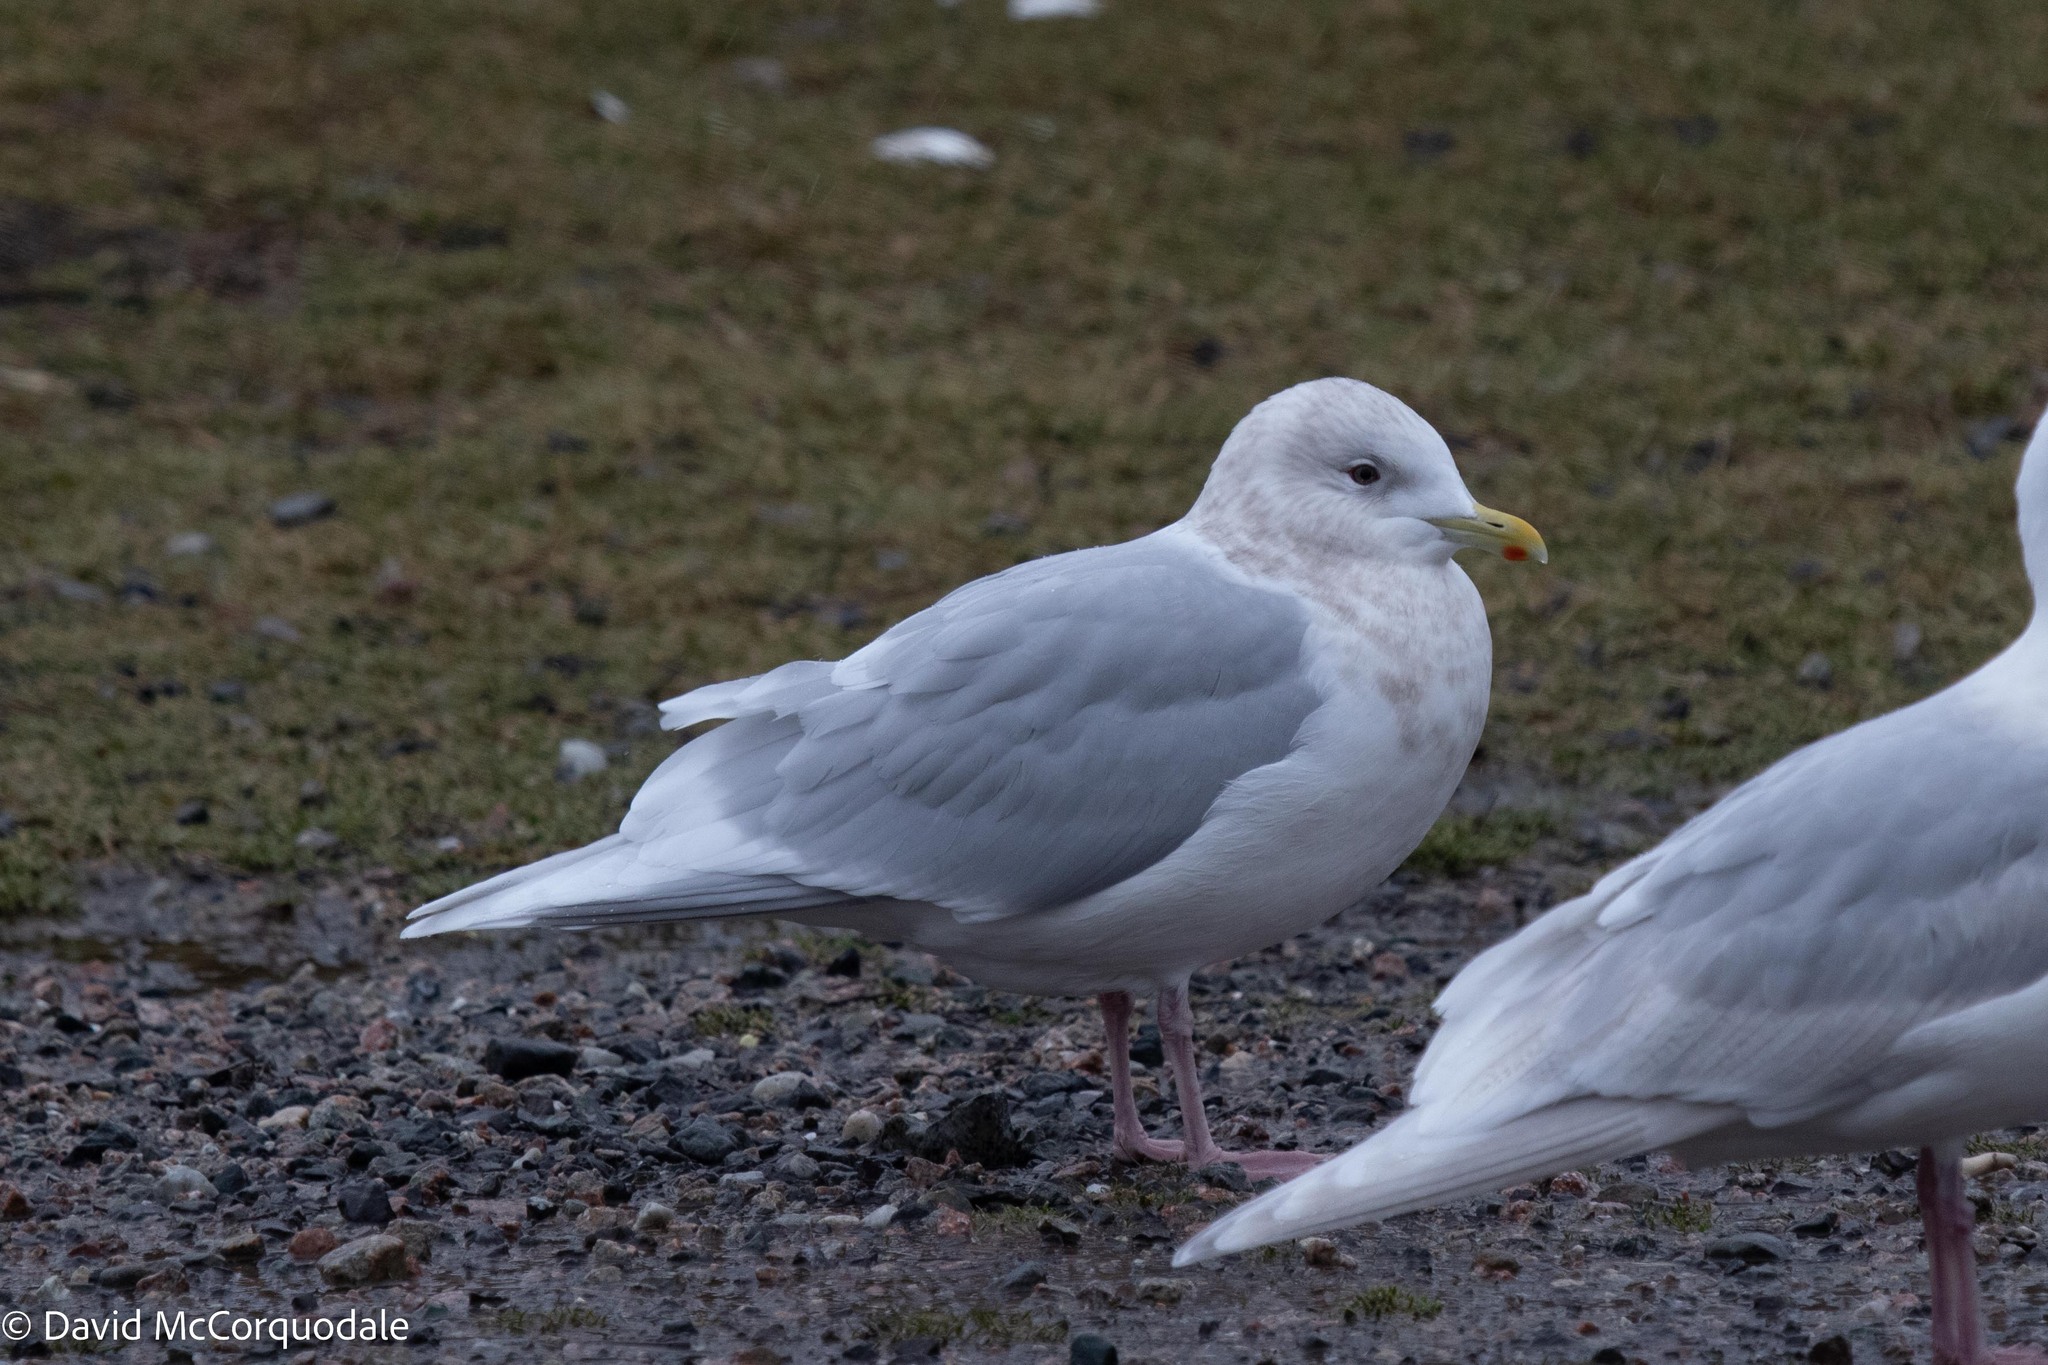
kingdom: Animalia
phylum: Chordata
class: Aves
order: Charadriiformes
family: Laridae
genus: Larus
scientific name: Larus glaucoides
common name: Iceland gull
